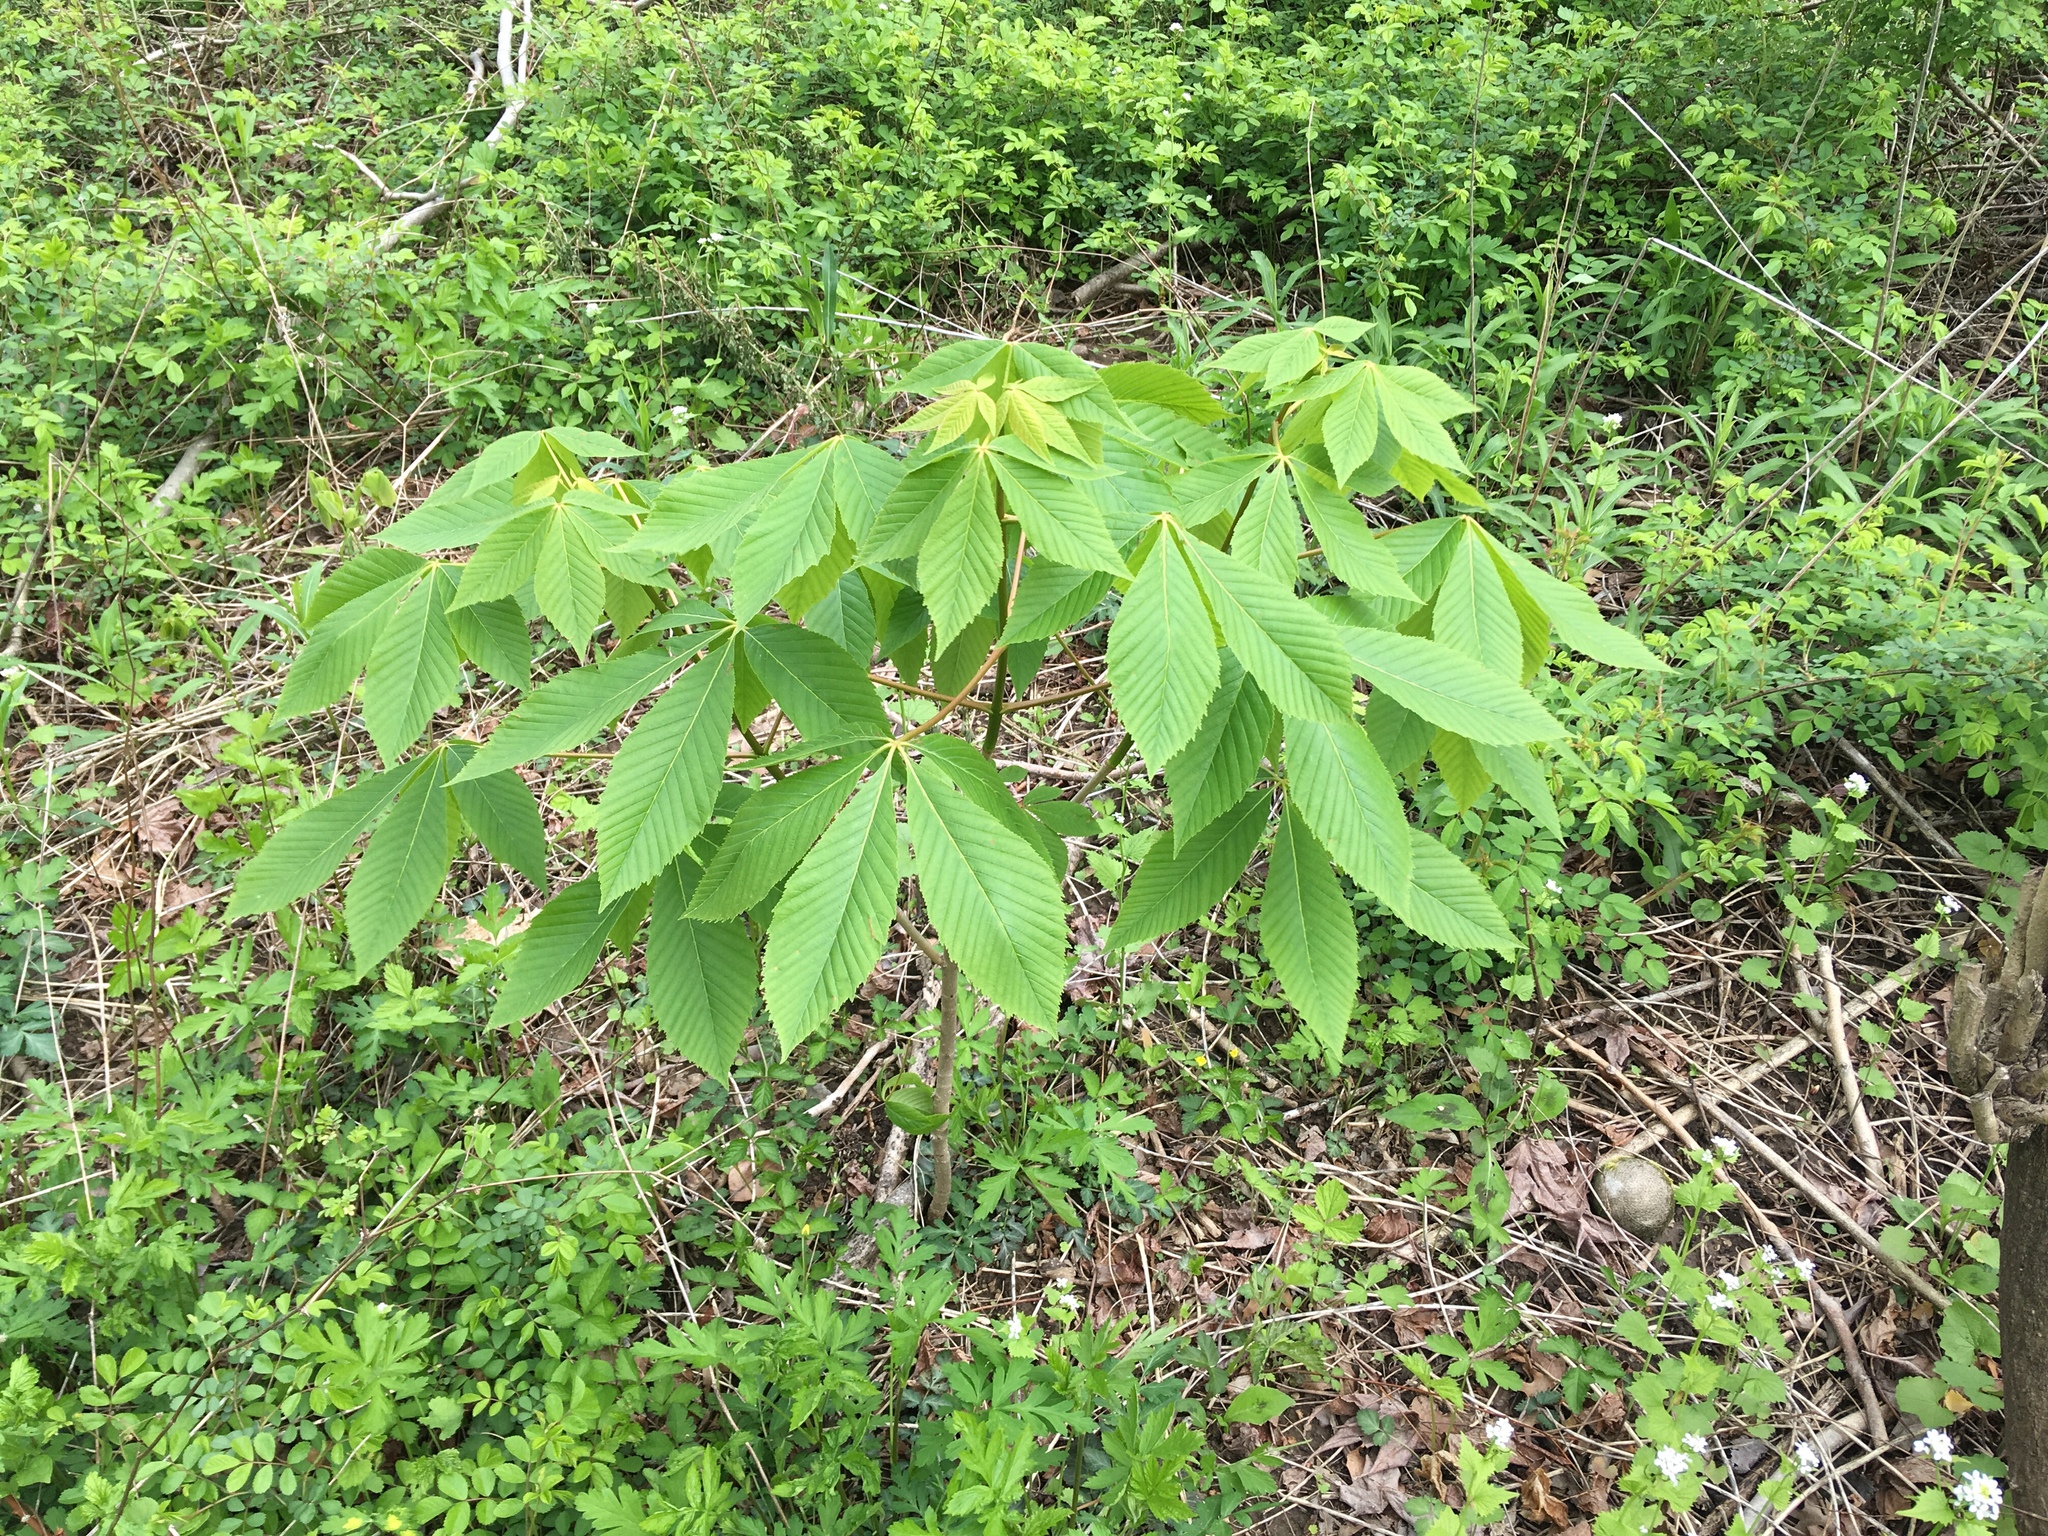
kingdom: Plantae
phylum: Tracheophyta
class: Magnoliopsida
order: Sapindales
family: Sapindaceae
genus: Aesculus
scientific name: Aesculus glabra
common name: Ohio buckeye
